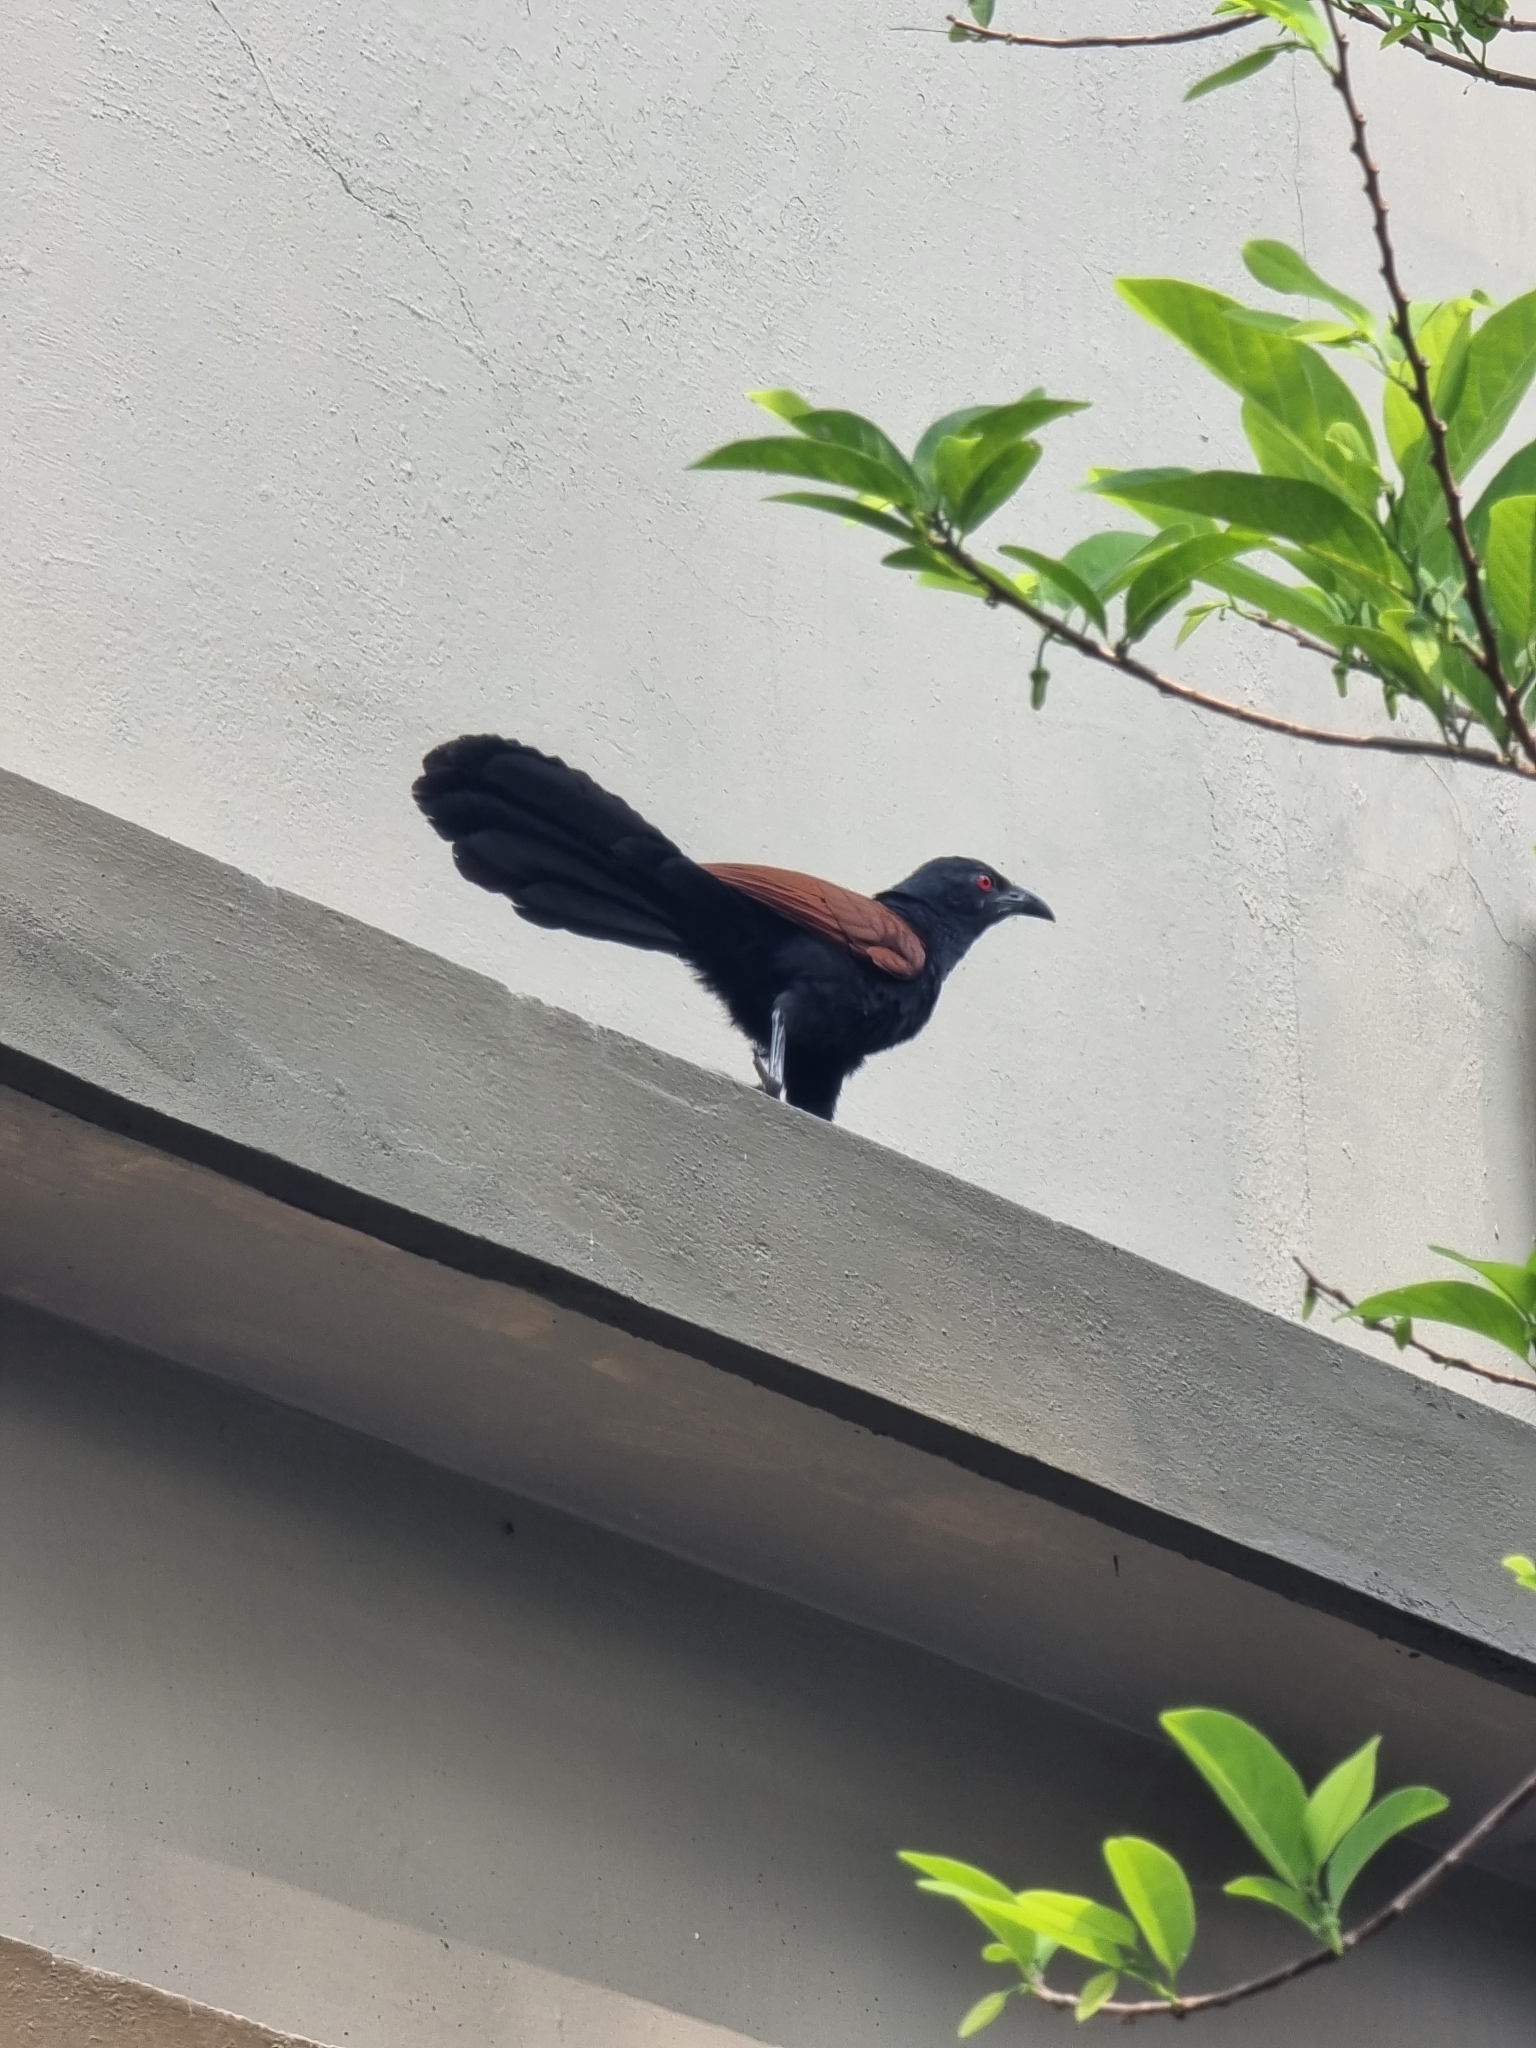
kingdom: Animalia
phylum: Chordata
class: Aves
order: Cuculiformes
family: Cuculidae
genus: Centropus
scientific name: Centropus sinensis
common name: Greater coucal
